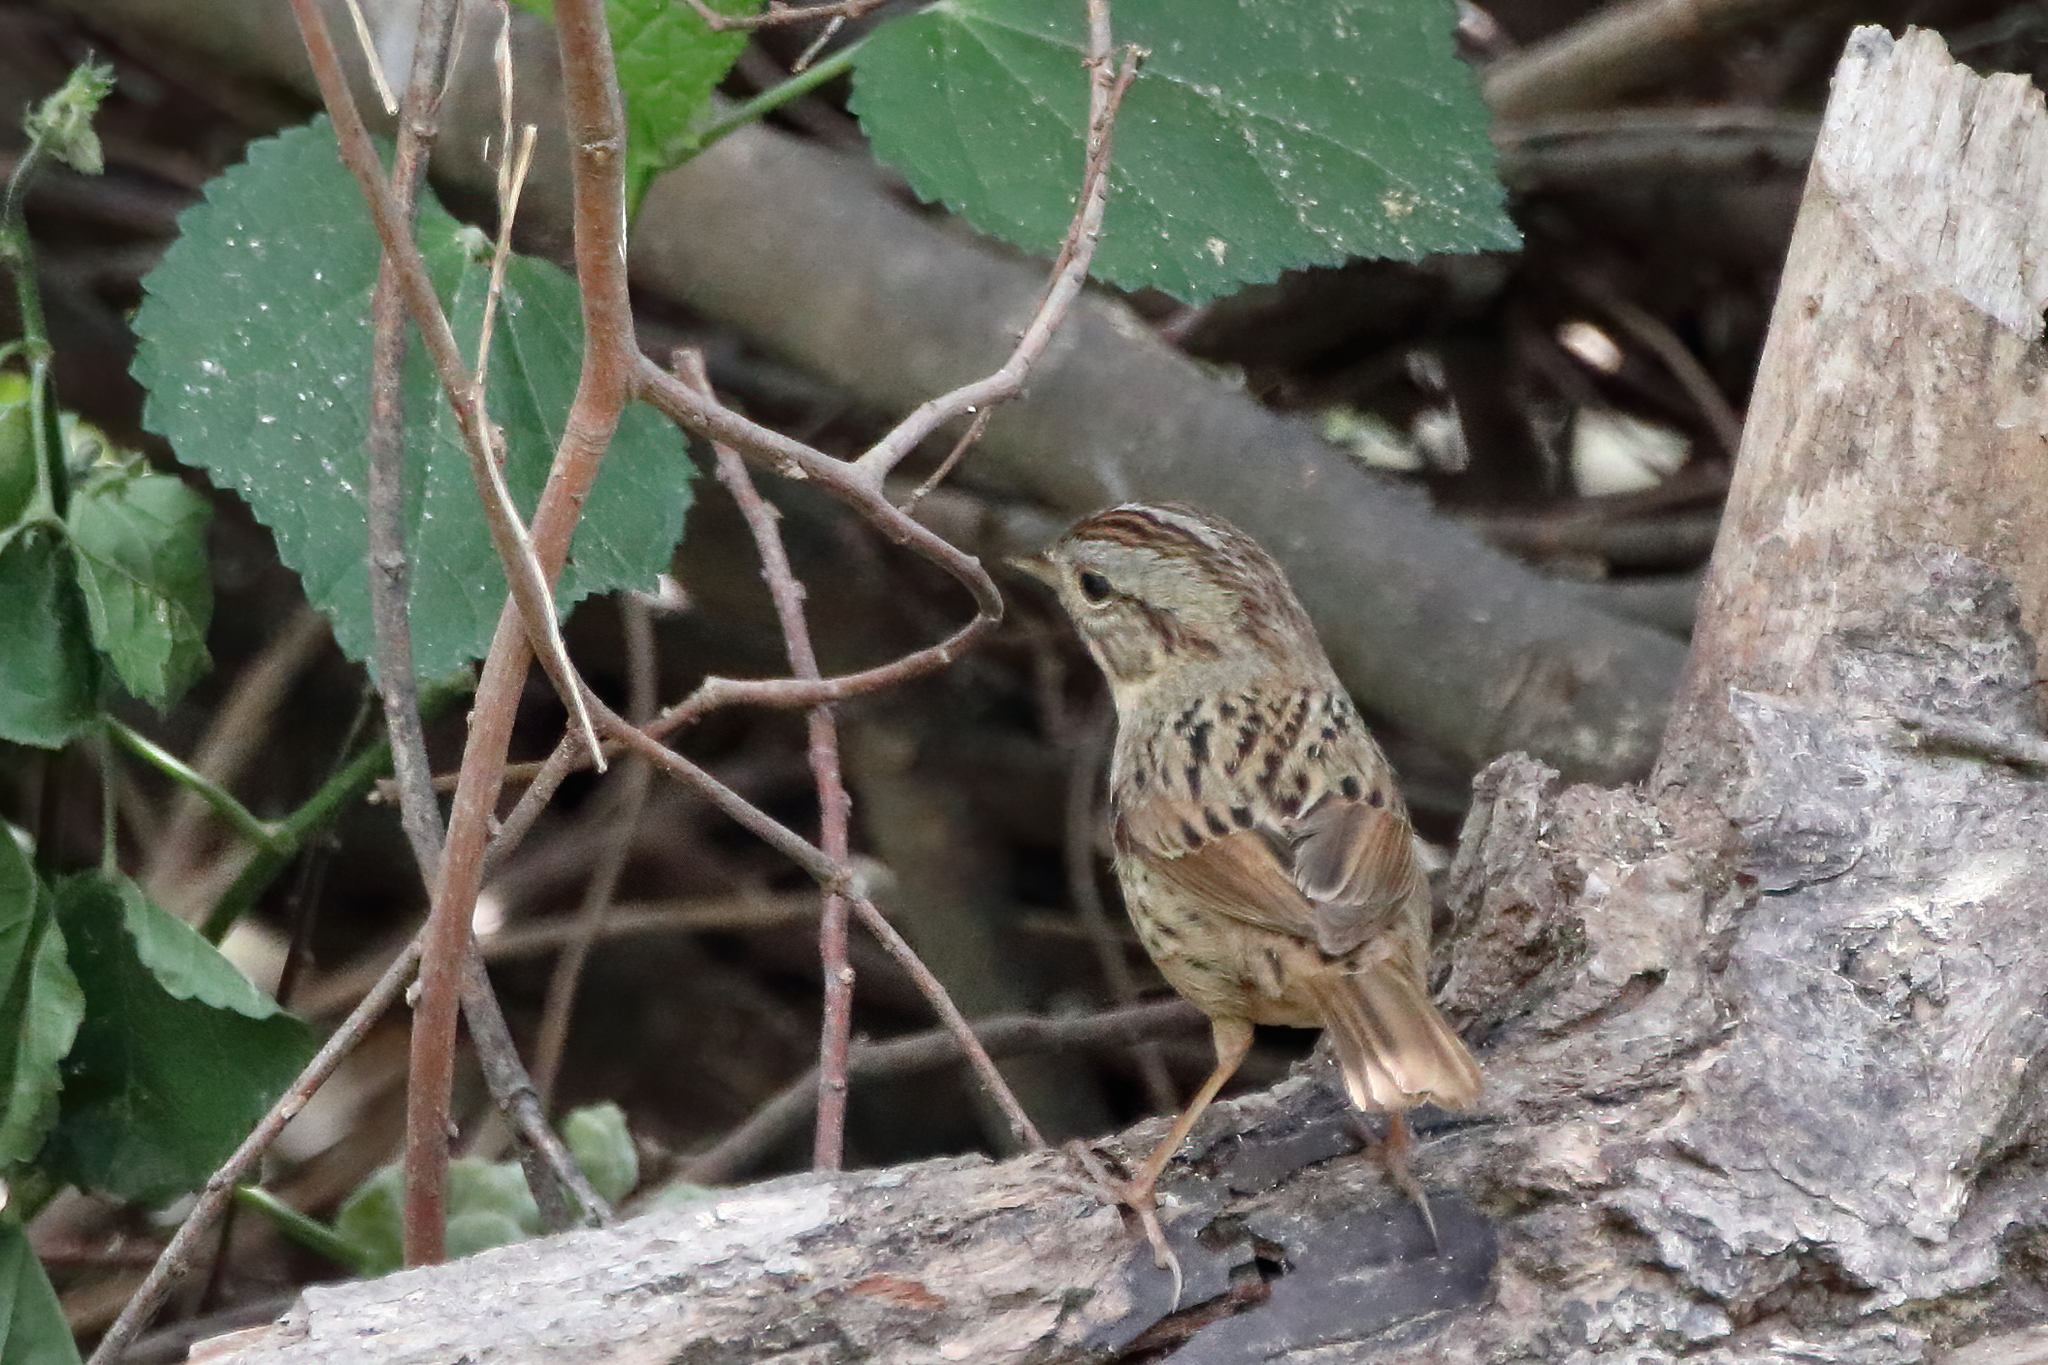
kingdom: Animalia
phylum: Chordata
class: Aves
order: Passeriformes
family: Passerellidae
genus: Melospiza
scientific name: Melospiza lincolnii
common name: Lincoln's sparrow
